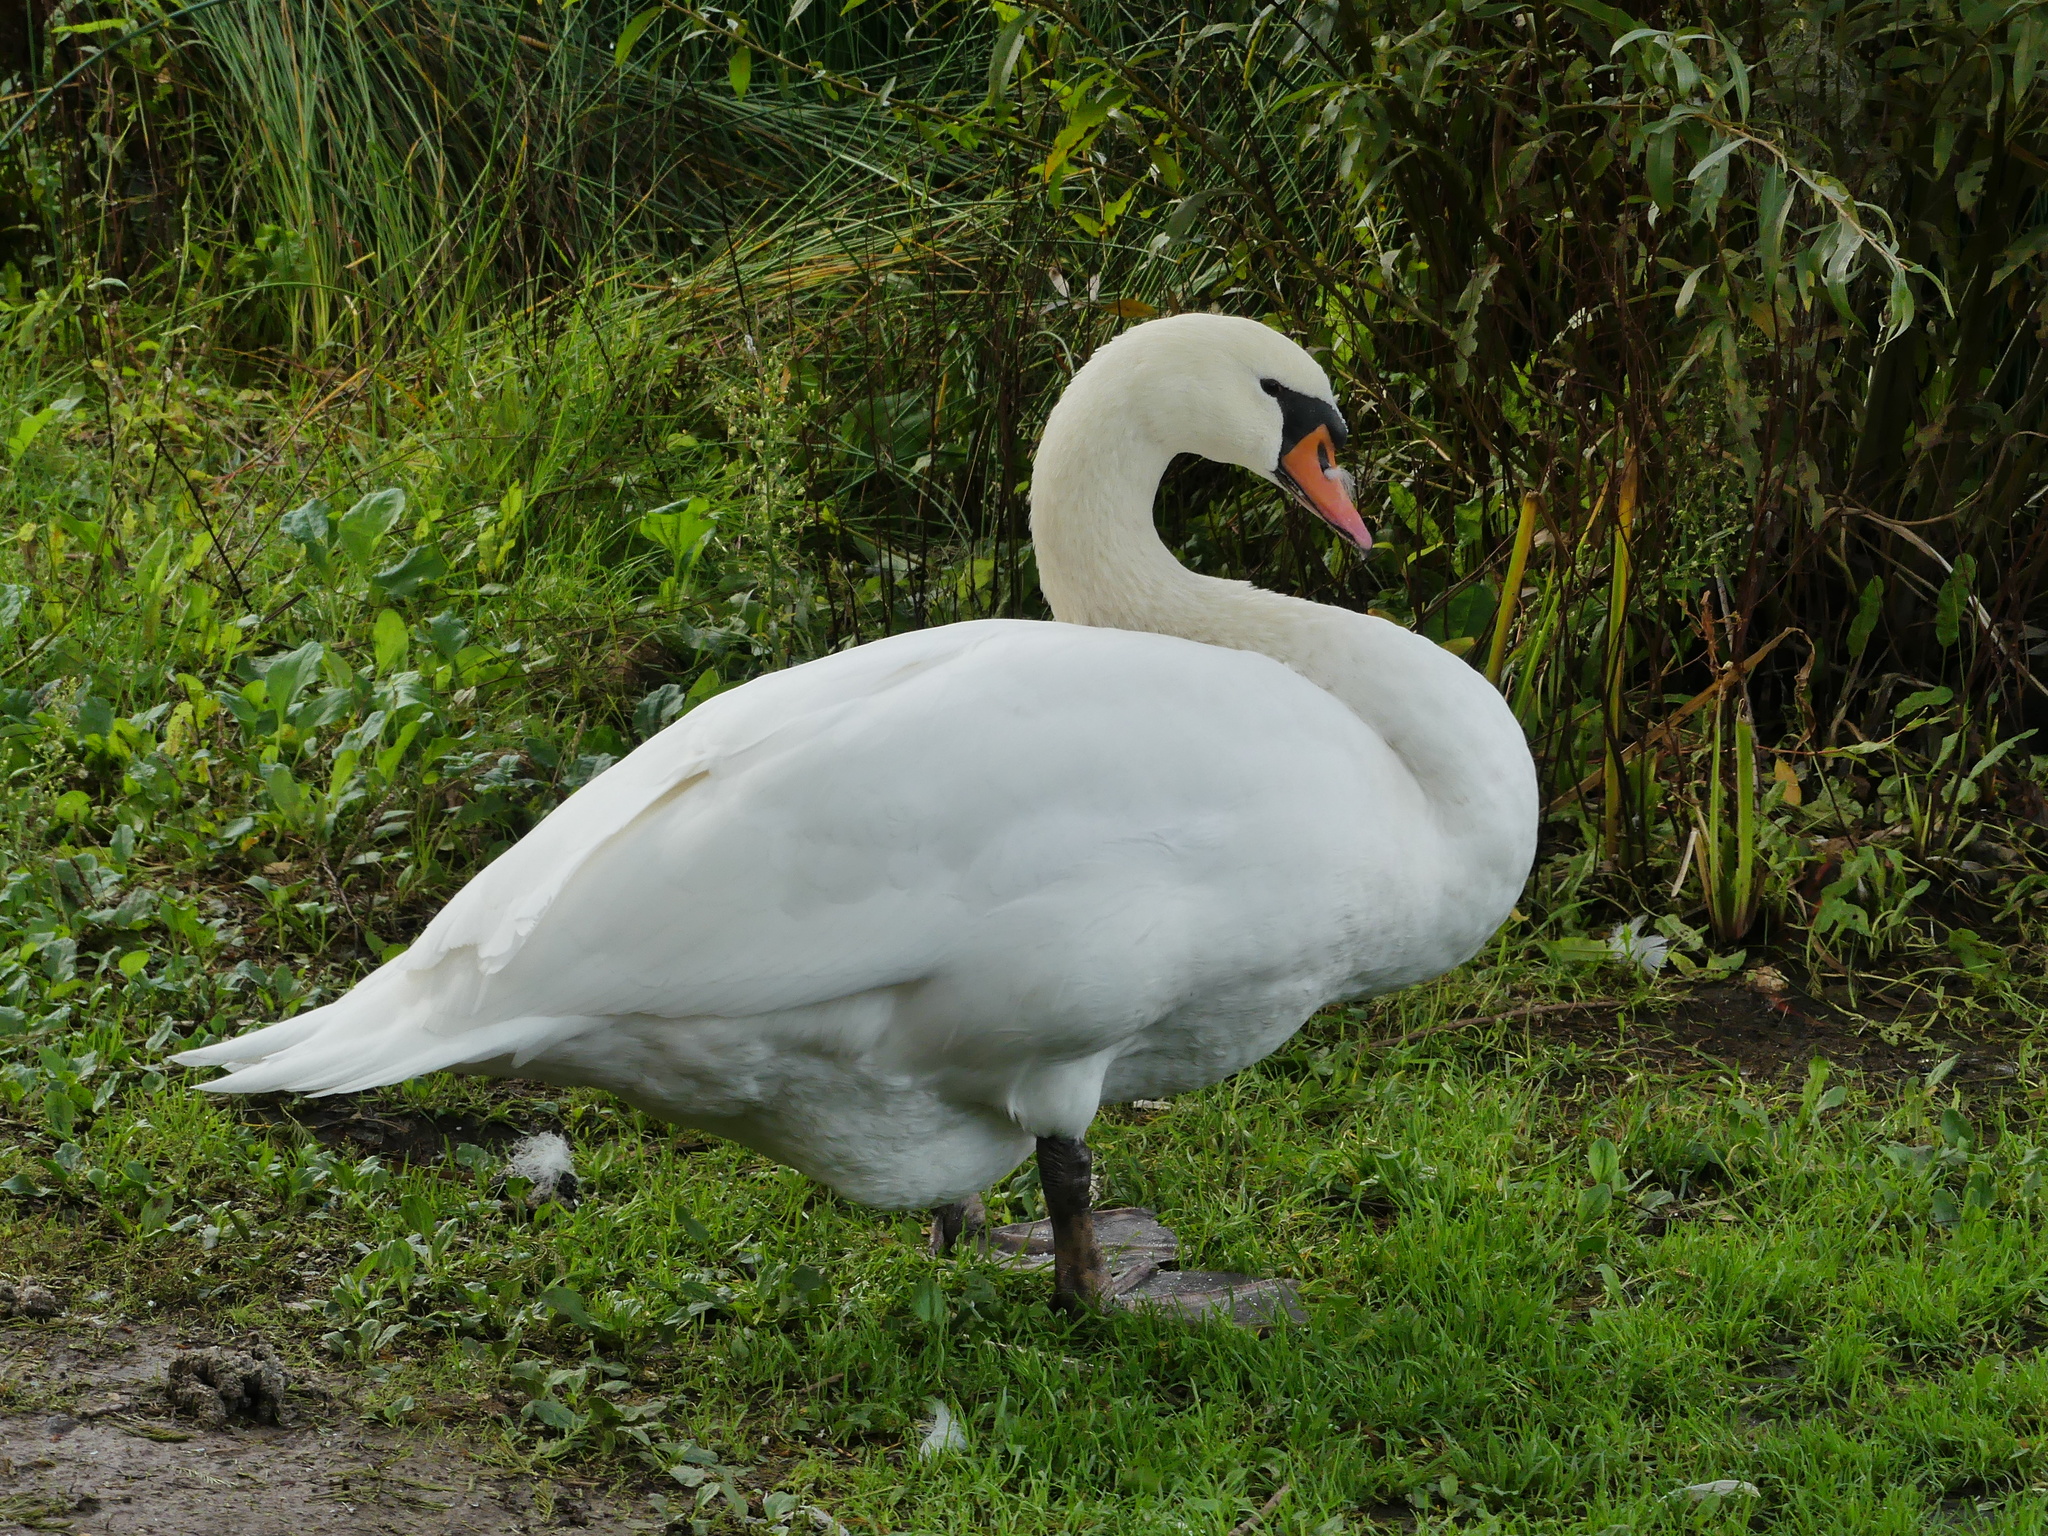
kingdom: Animalia
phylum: Chordata
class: Aves
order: Anseriformes
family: Anatidae
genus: Cygnus
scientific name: Cygnus olor
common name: Mute swan
